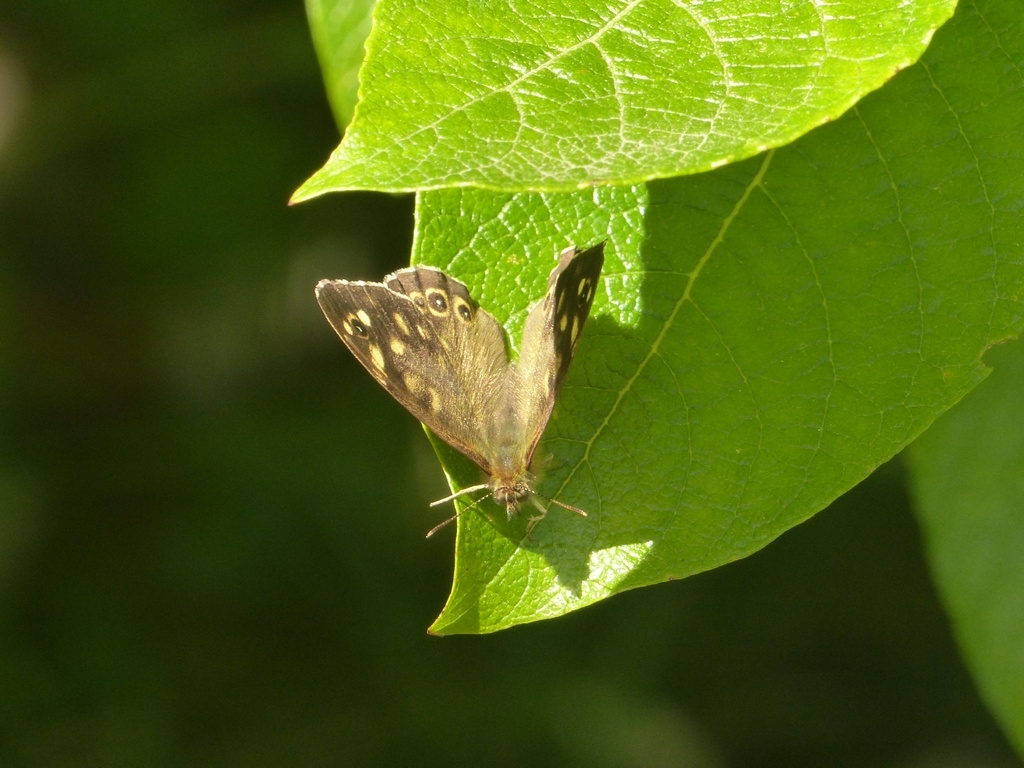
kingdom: Animalia
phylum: Arthropoda
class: Insecta
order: Lepidoptera
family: Nymphalidae
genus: Pararge
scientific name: Pararge aegeria
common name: Speckled wood
